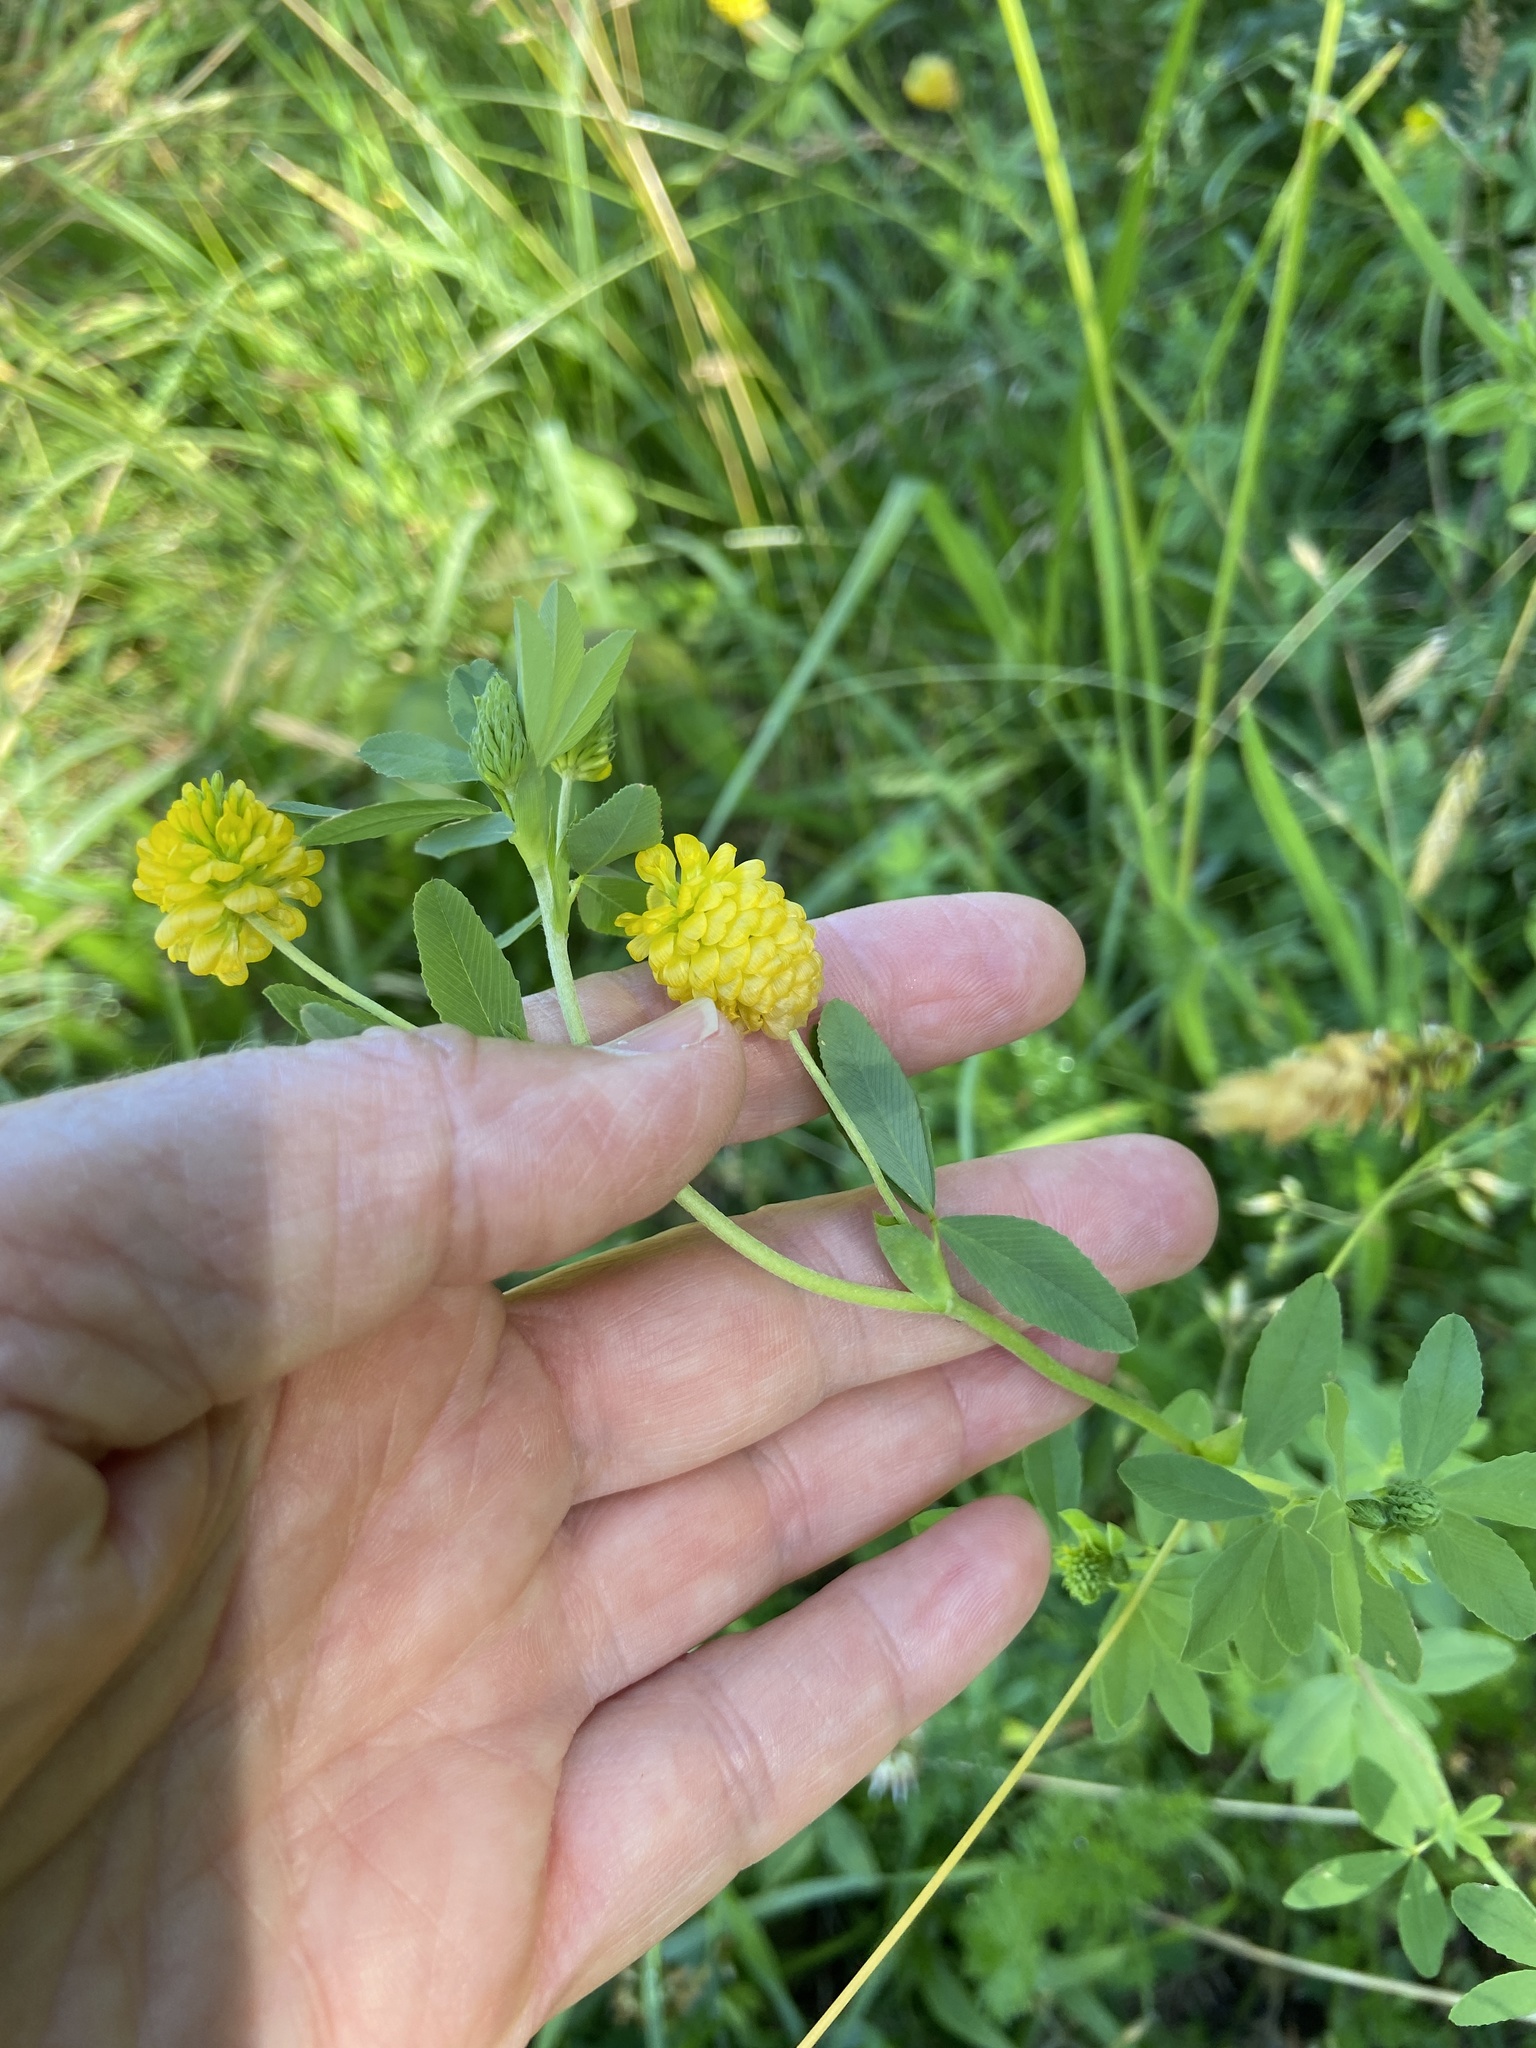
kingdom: Plantae
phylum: Tracheophyta
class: Magnoliopsida
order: Fabales
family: Fabaceae
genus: Trifolium
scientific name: Trifolium aureum
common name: Golden clover
